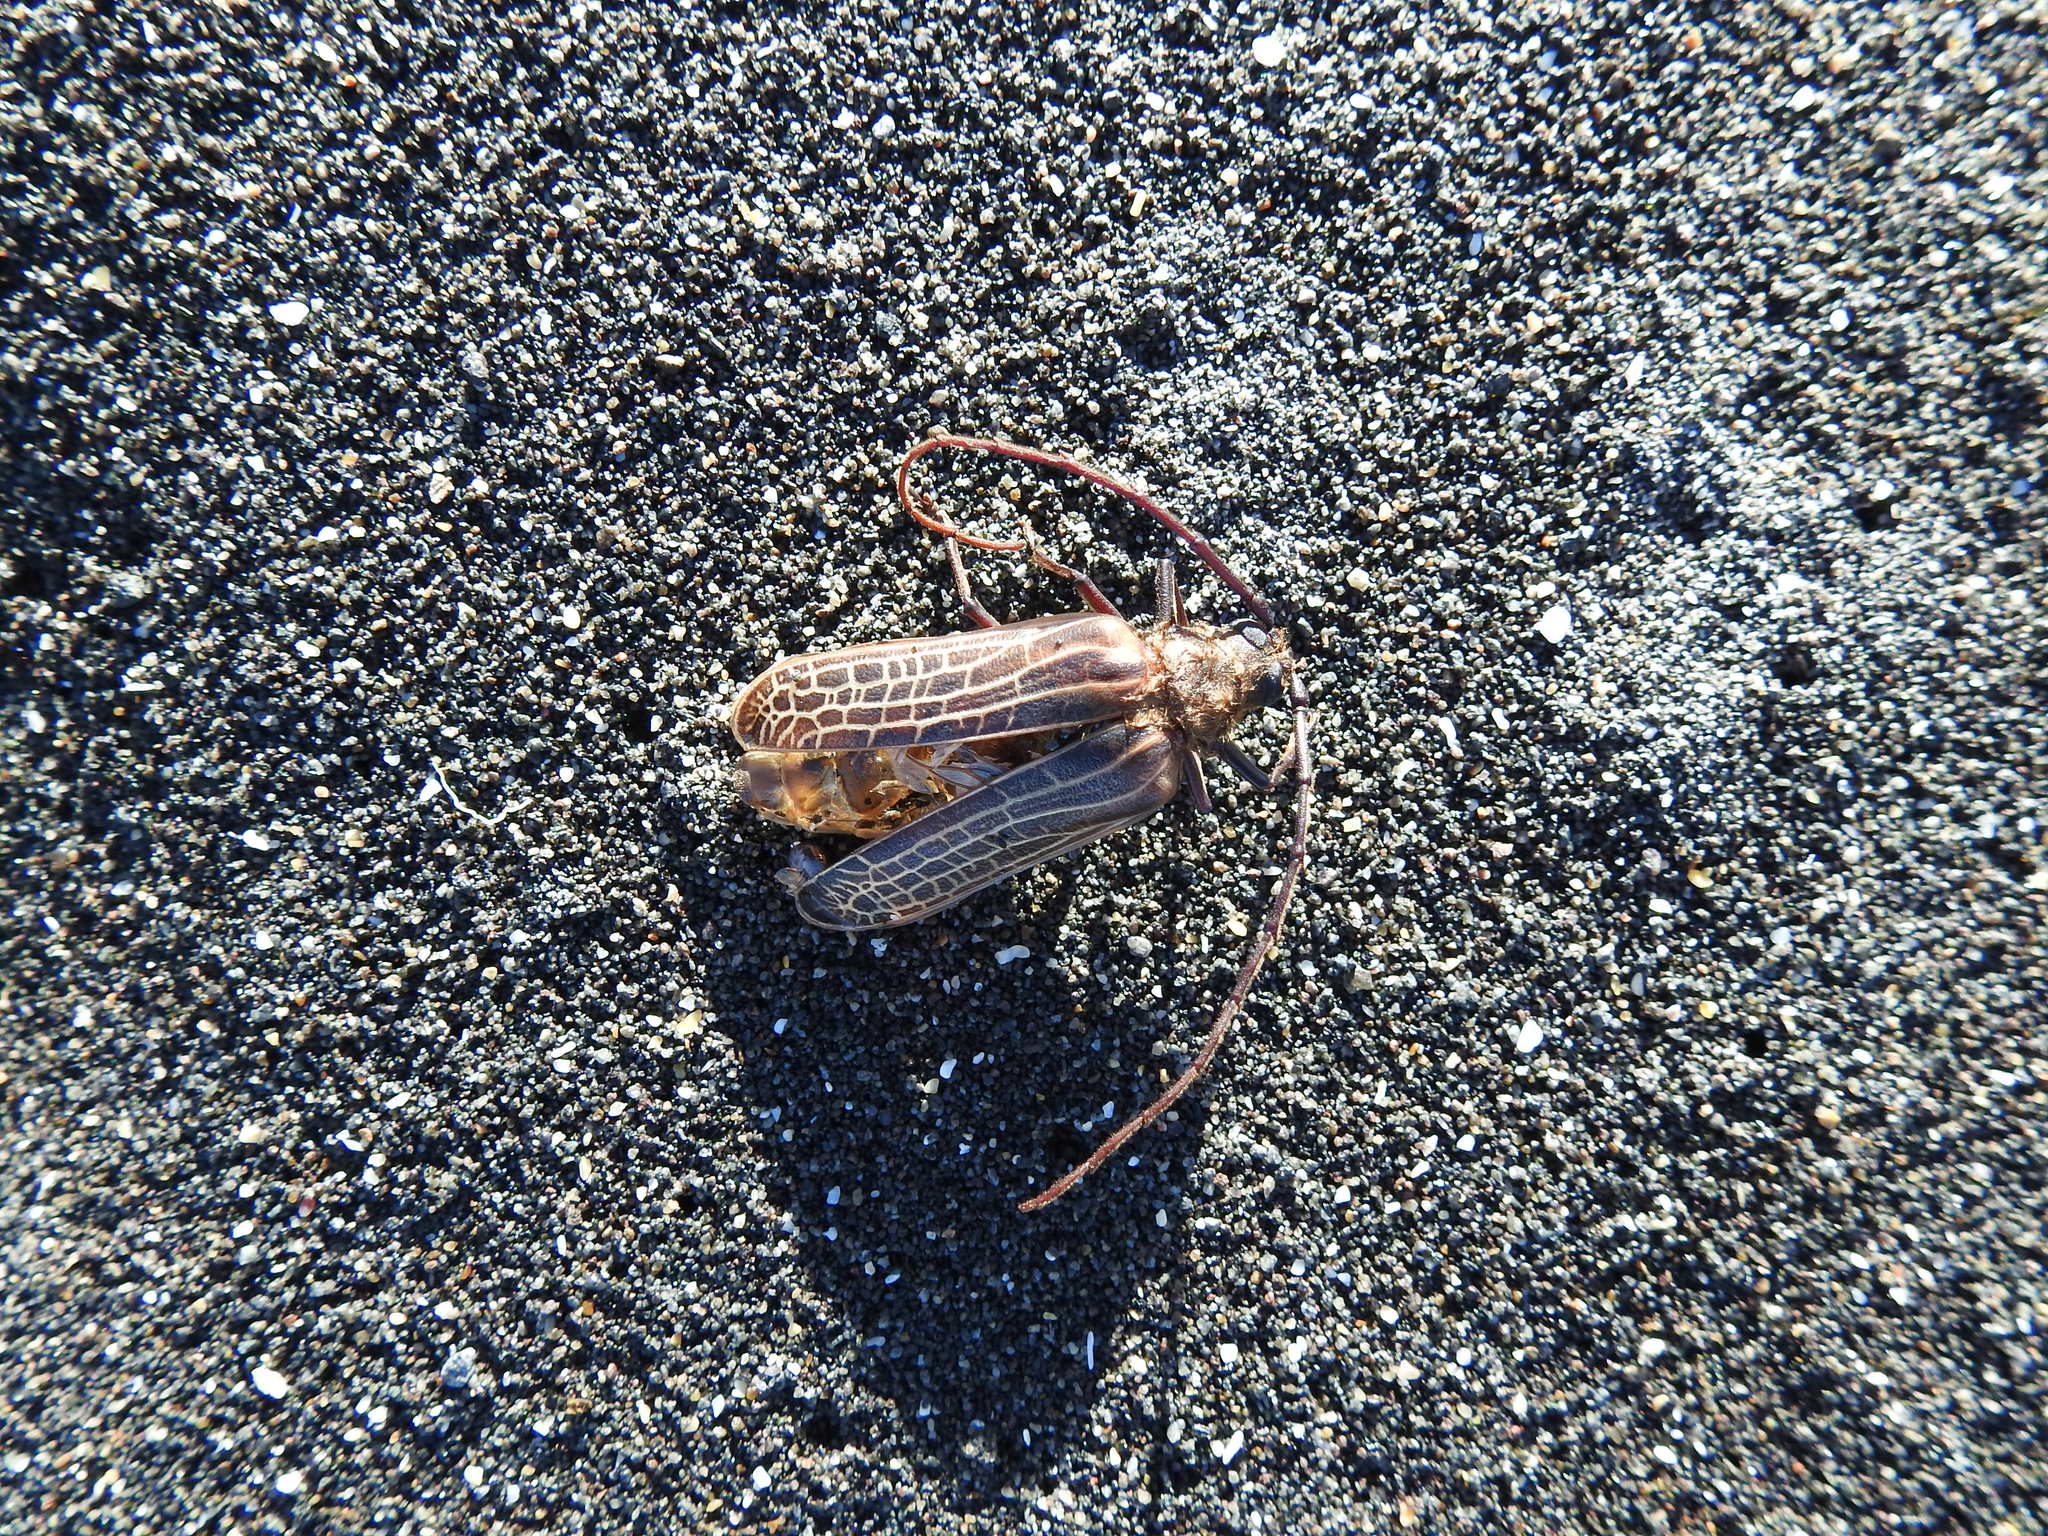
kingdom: Animalia
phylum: Arthropoda
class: Insecta
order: Coleoptera
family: Cerambycidae
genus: Prionoplus
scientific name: Prionoplus reticularis
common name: Huhu beetle
